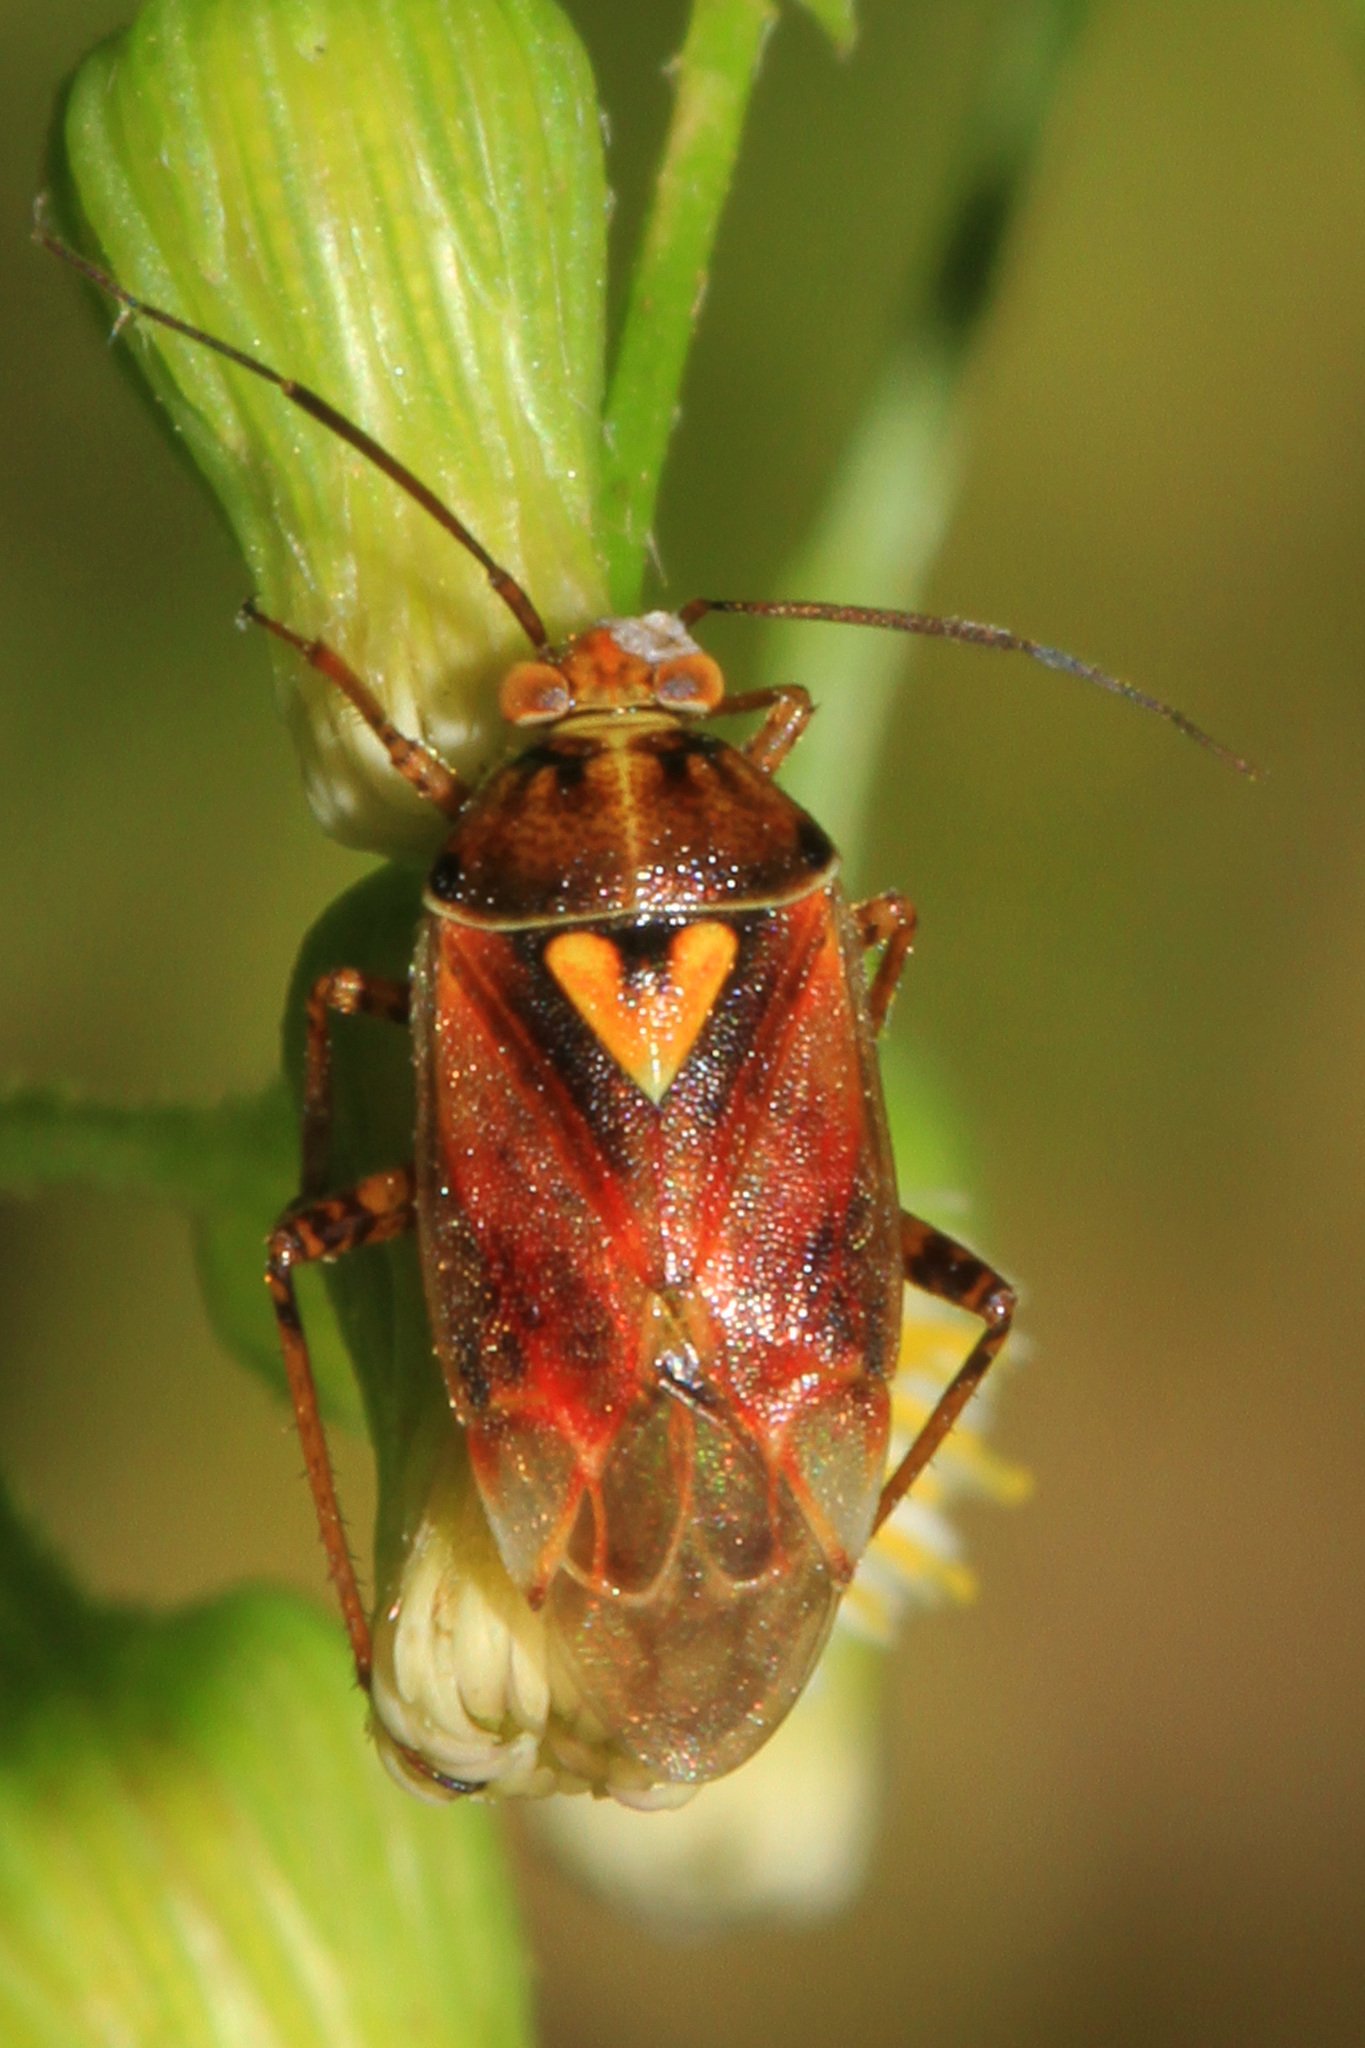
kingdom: Animalia
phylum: Arthropoda
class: Insecta
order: Hemiptera
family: Miridae
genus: Lygus
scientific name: Lygus hesperus
